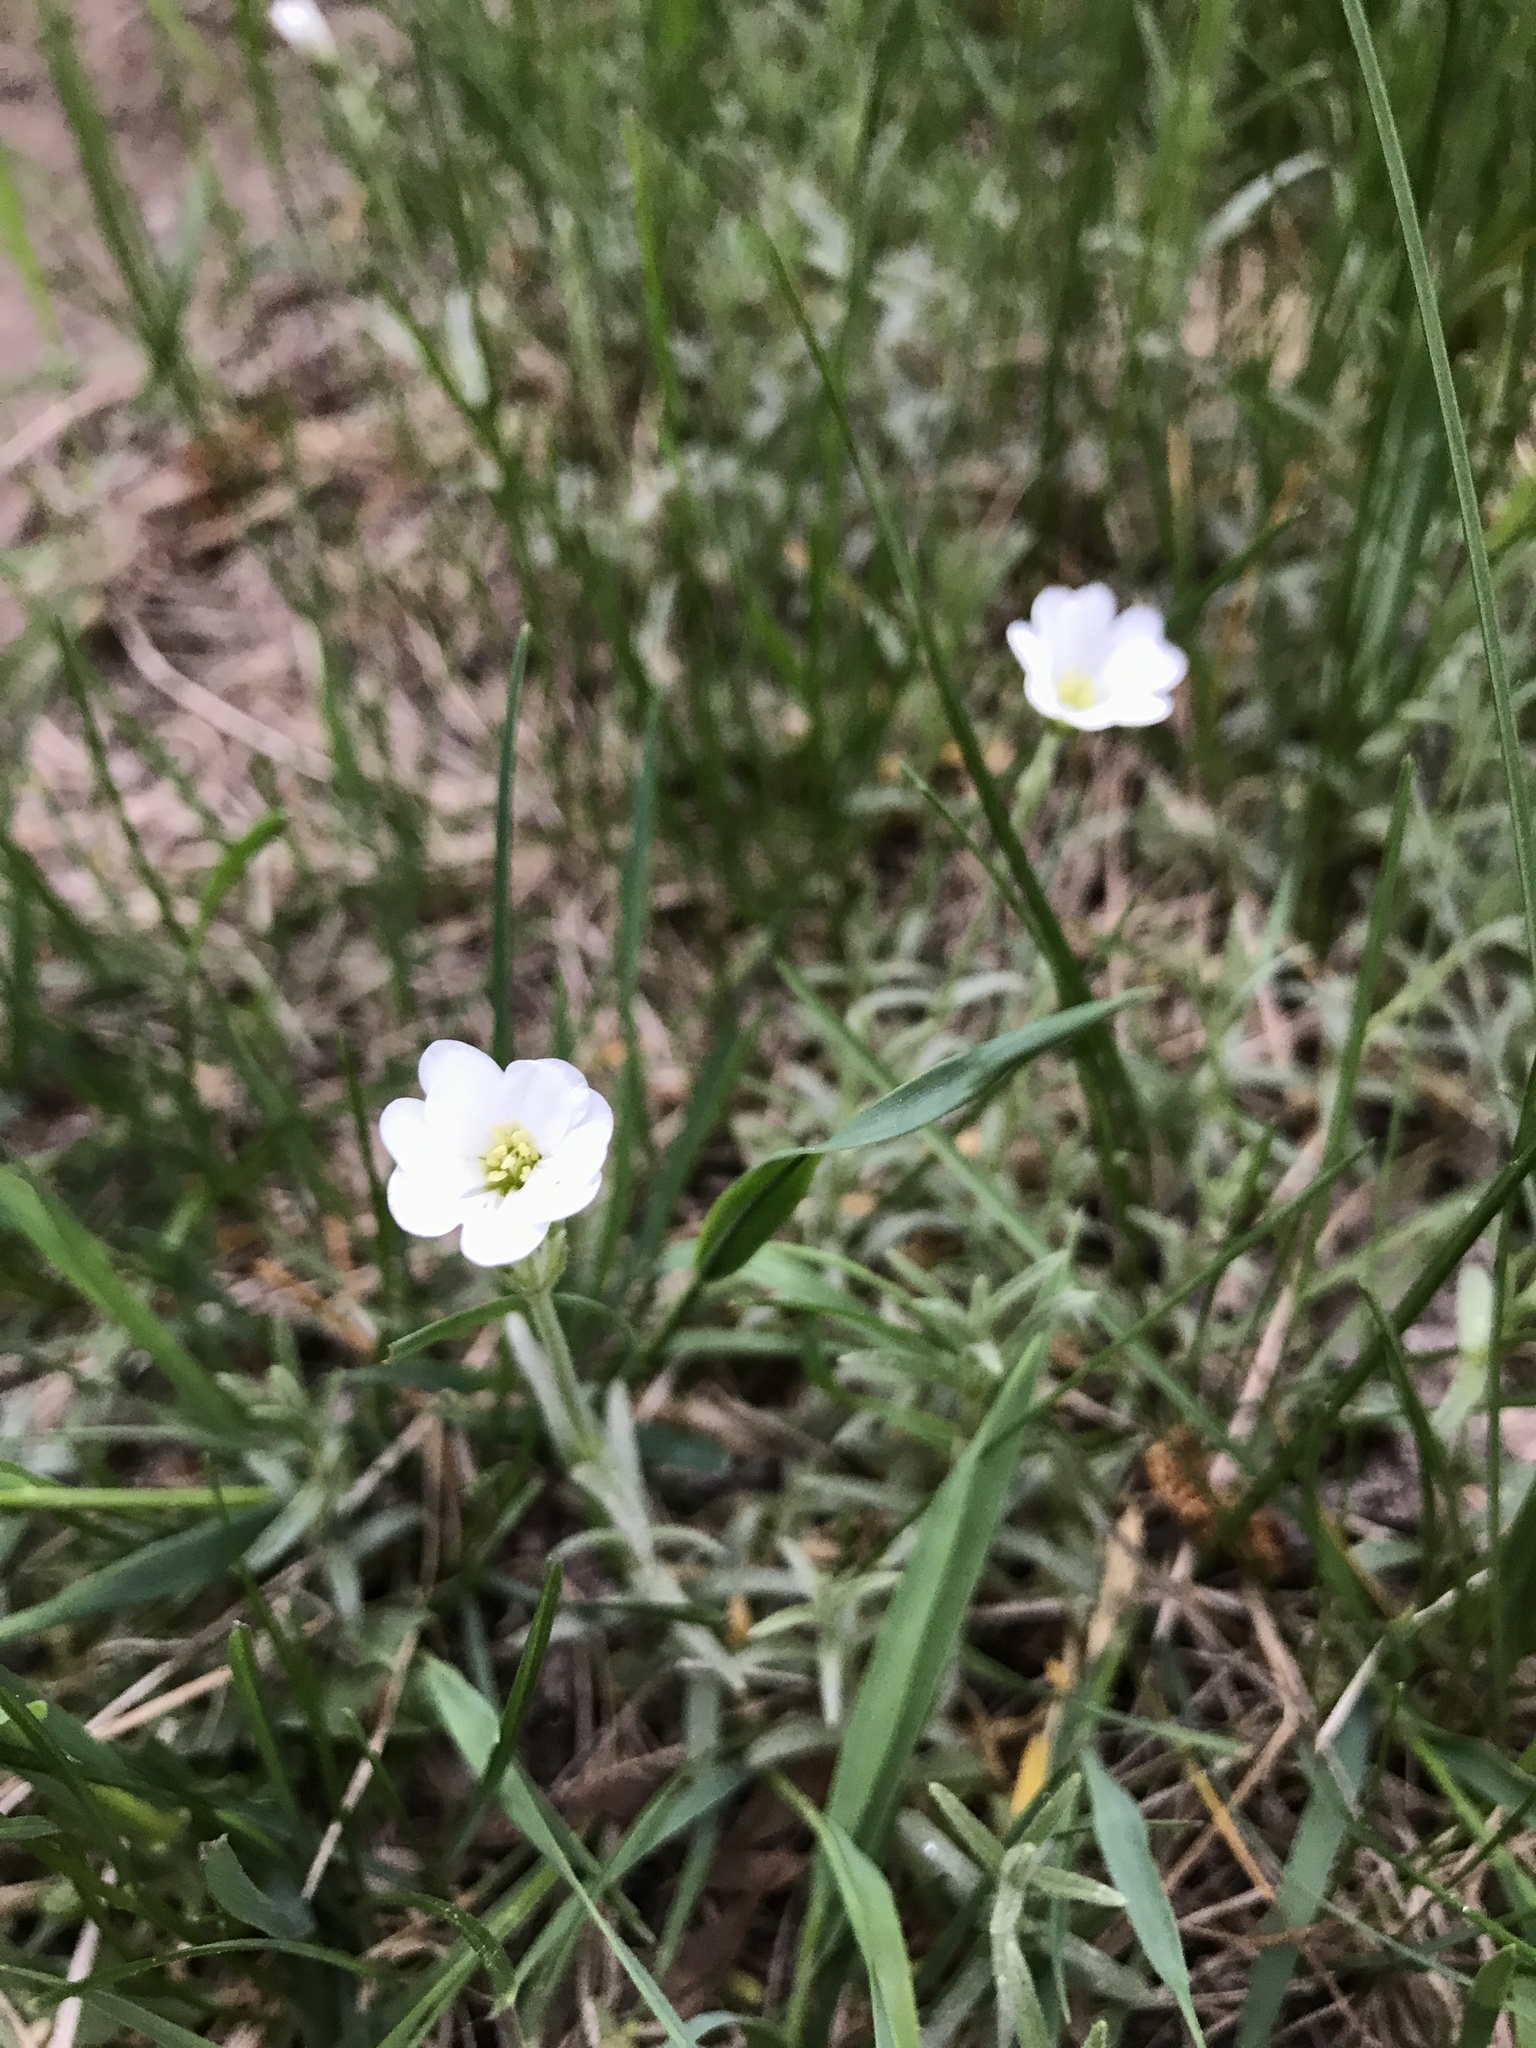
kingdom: Plantae
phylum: Tracheophyta
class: Magnoliopsida
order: Caryophyllales
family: Caryophyllaceae
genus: Cerastium
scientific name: Cerastium arvense
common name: Field mouse-ear
